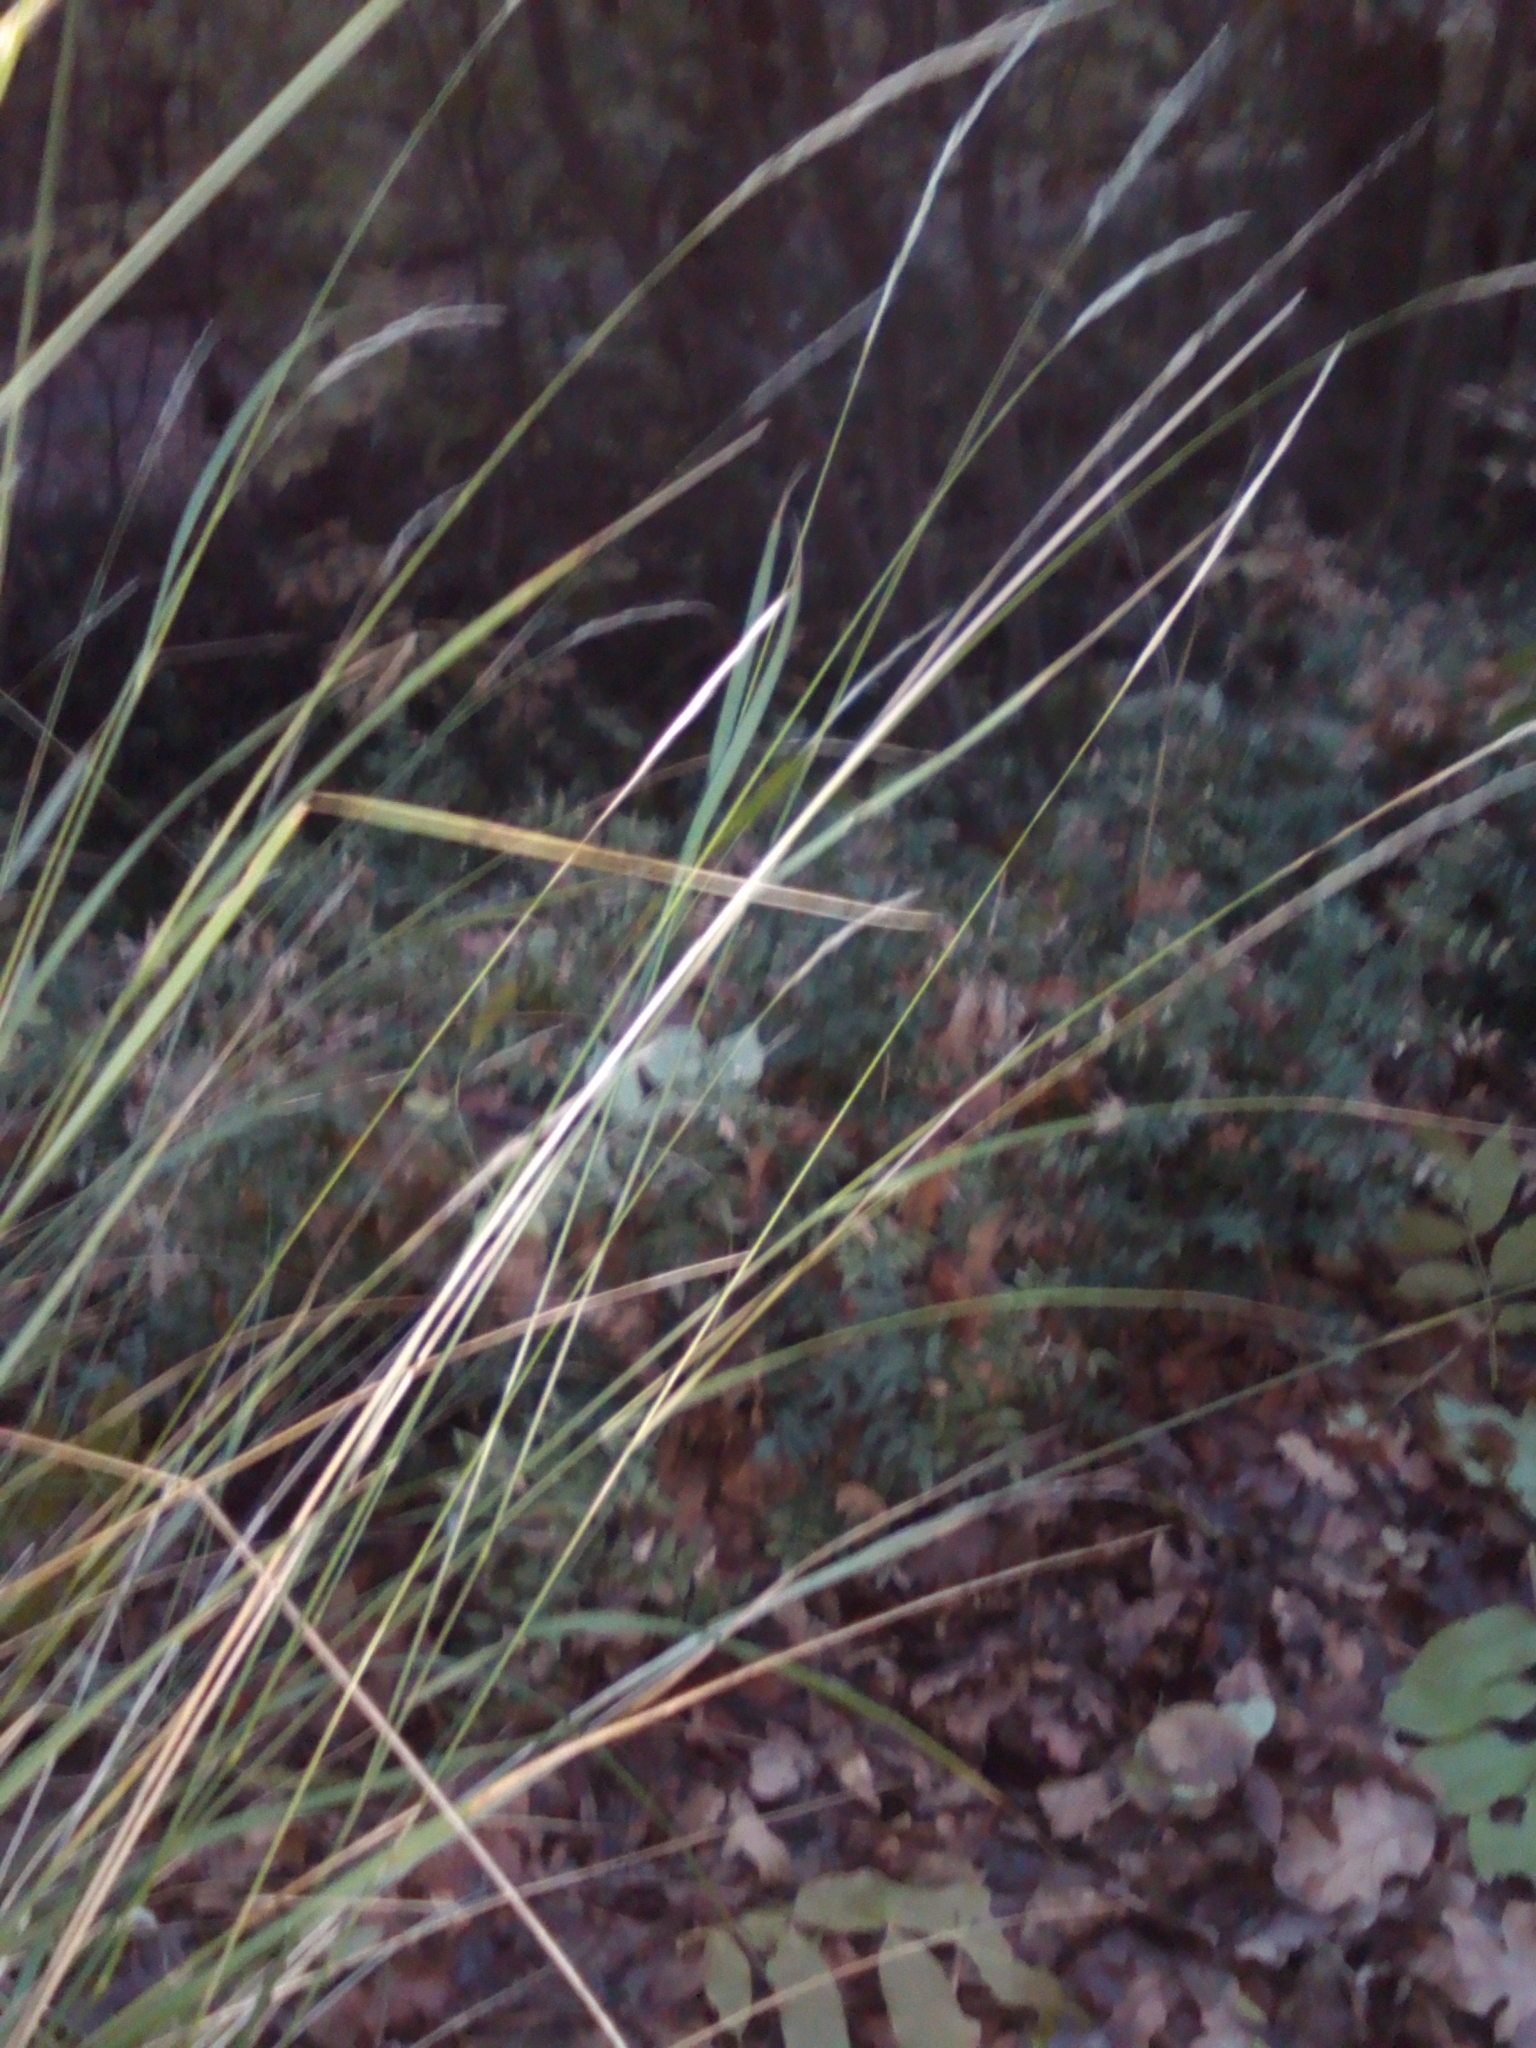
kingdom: Plantae
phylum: Tracheophyta
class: Liliopsida
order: Poales
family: Poaceae
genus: Achnatherum
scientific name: Achnatherum bromoides
